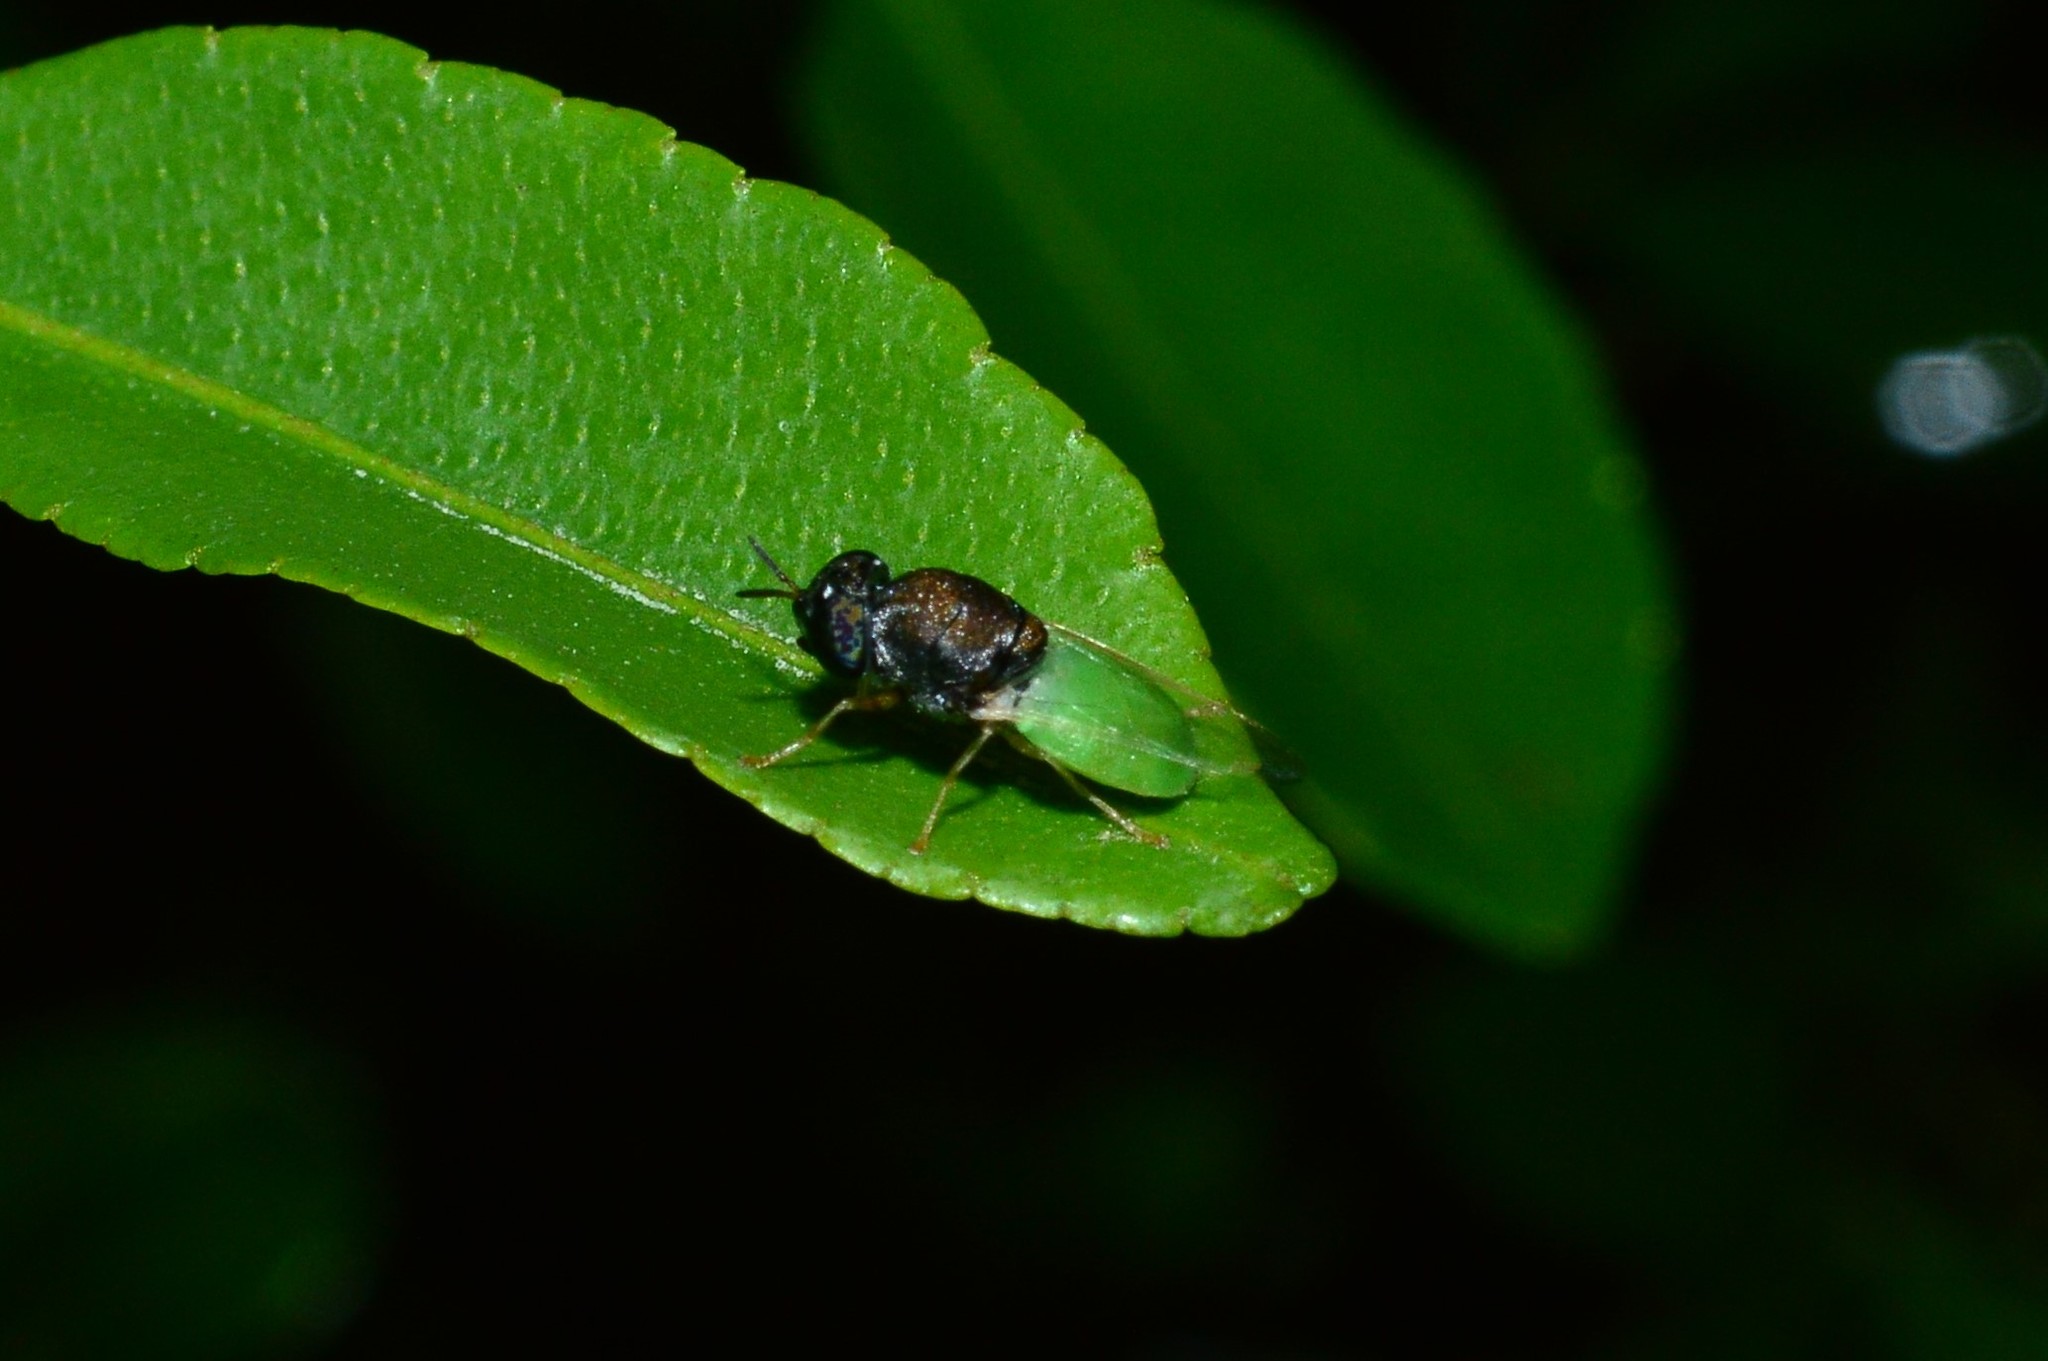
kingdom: Animalia
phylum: Arthropoda
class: Insecta
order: Diptera
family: Stratiomyidae
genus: Oplodontha
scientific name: Oplodontha rubrithorax
